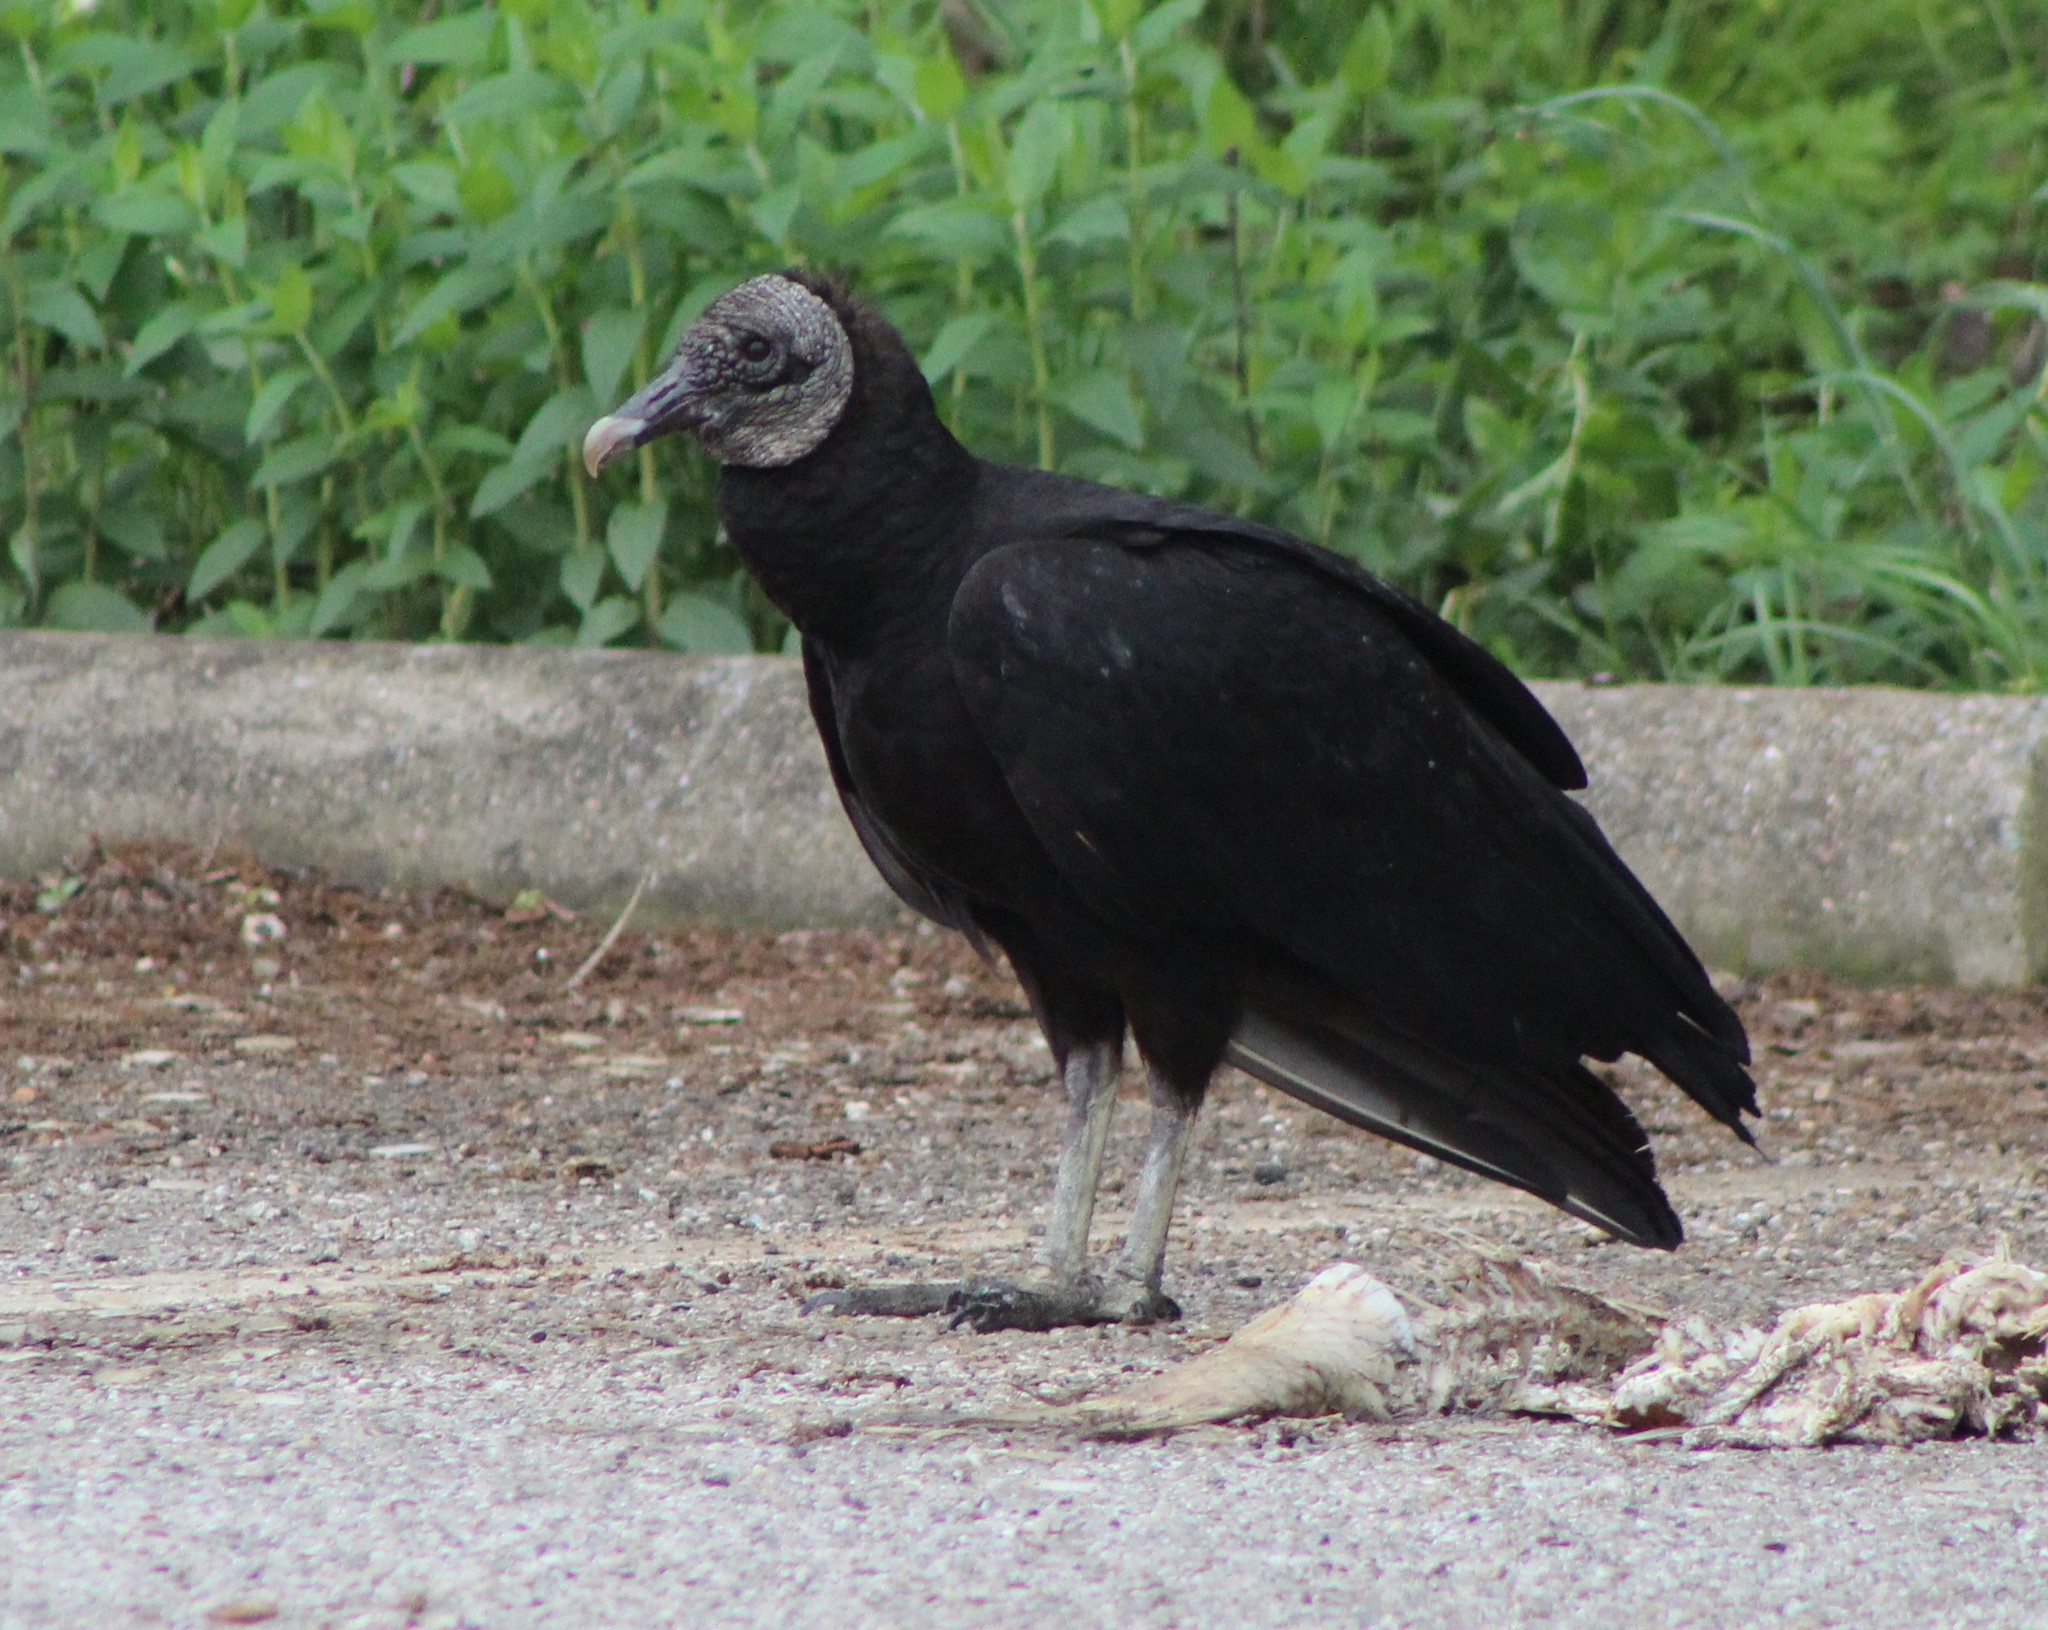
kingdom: Animalia
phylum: Chordata
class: Aves
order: Accipitriformes
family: Cathartidae
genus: Coragyps
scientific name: Coragyps atratus
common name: Black vulture
